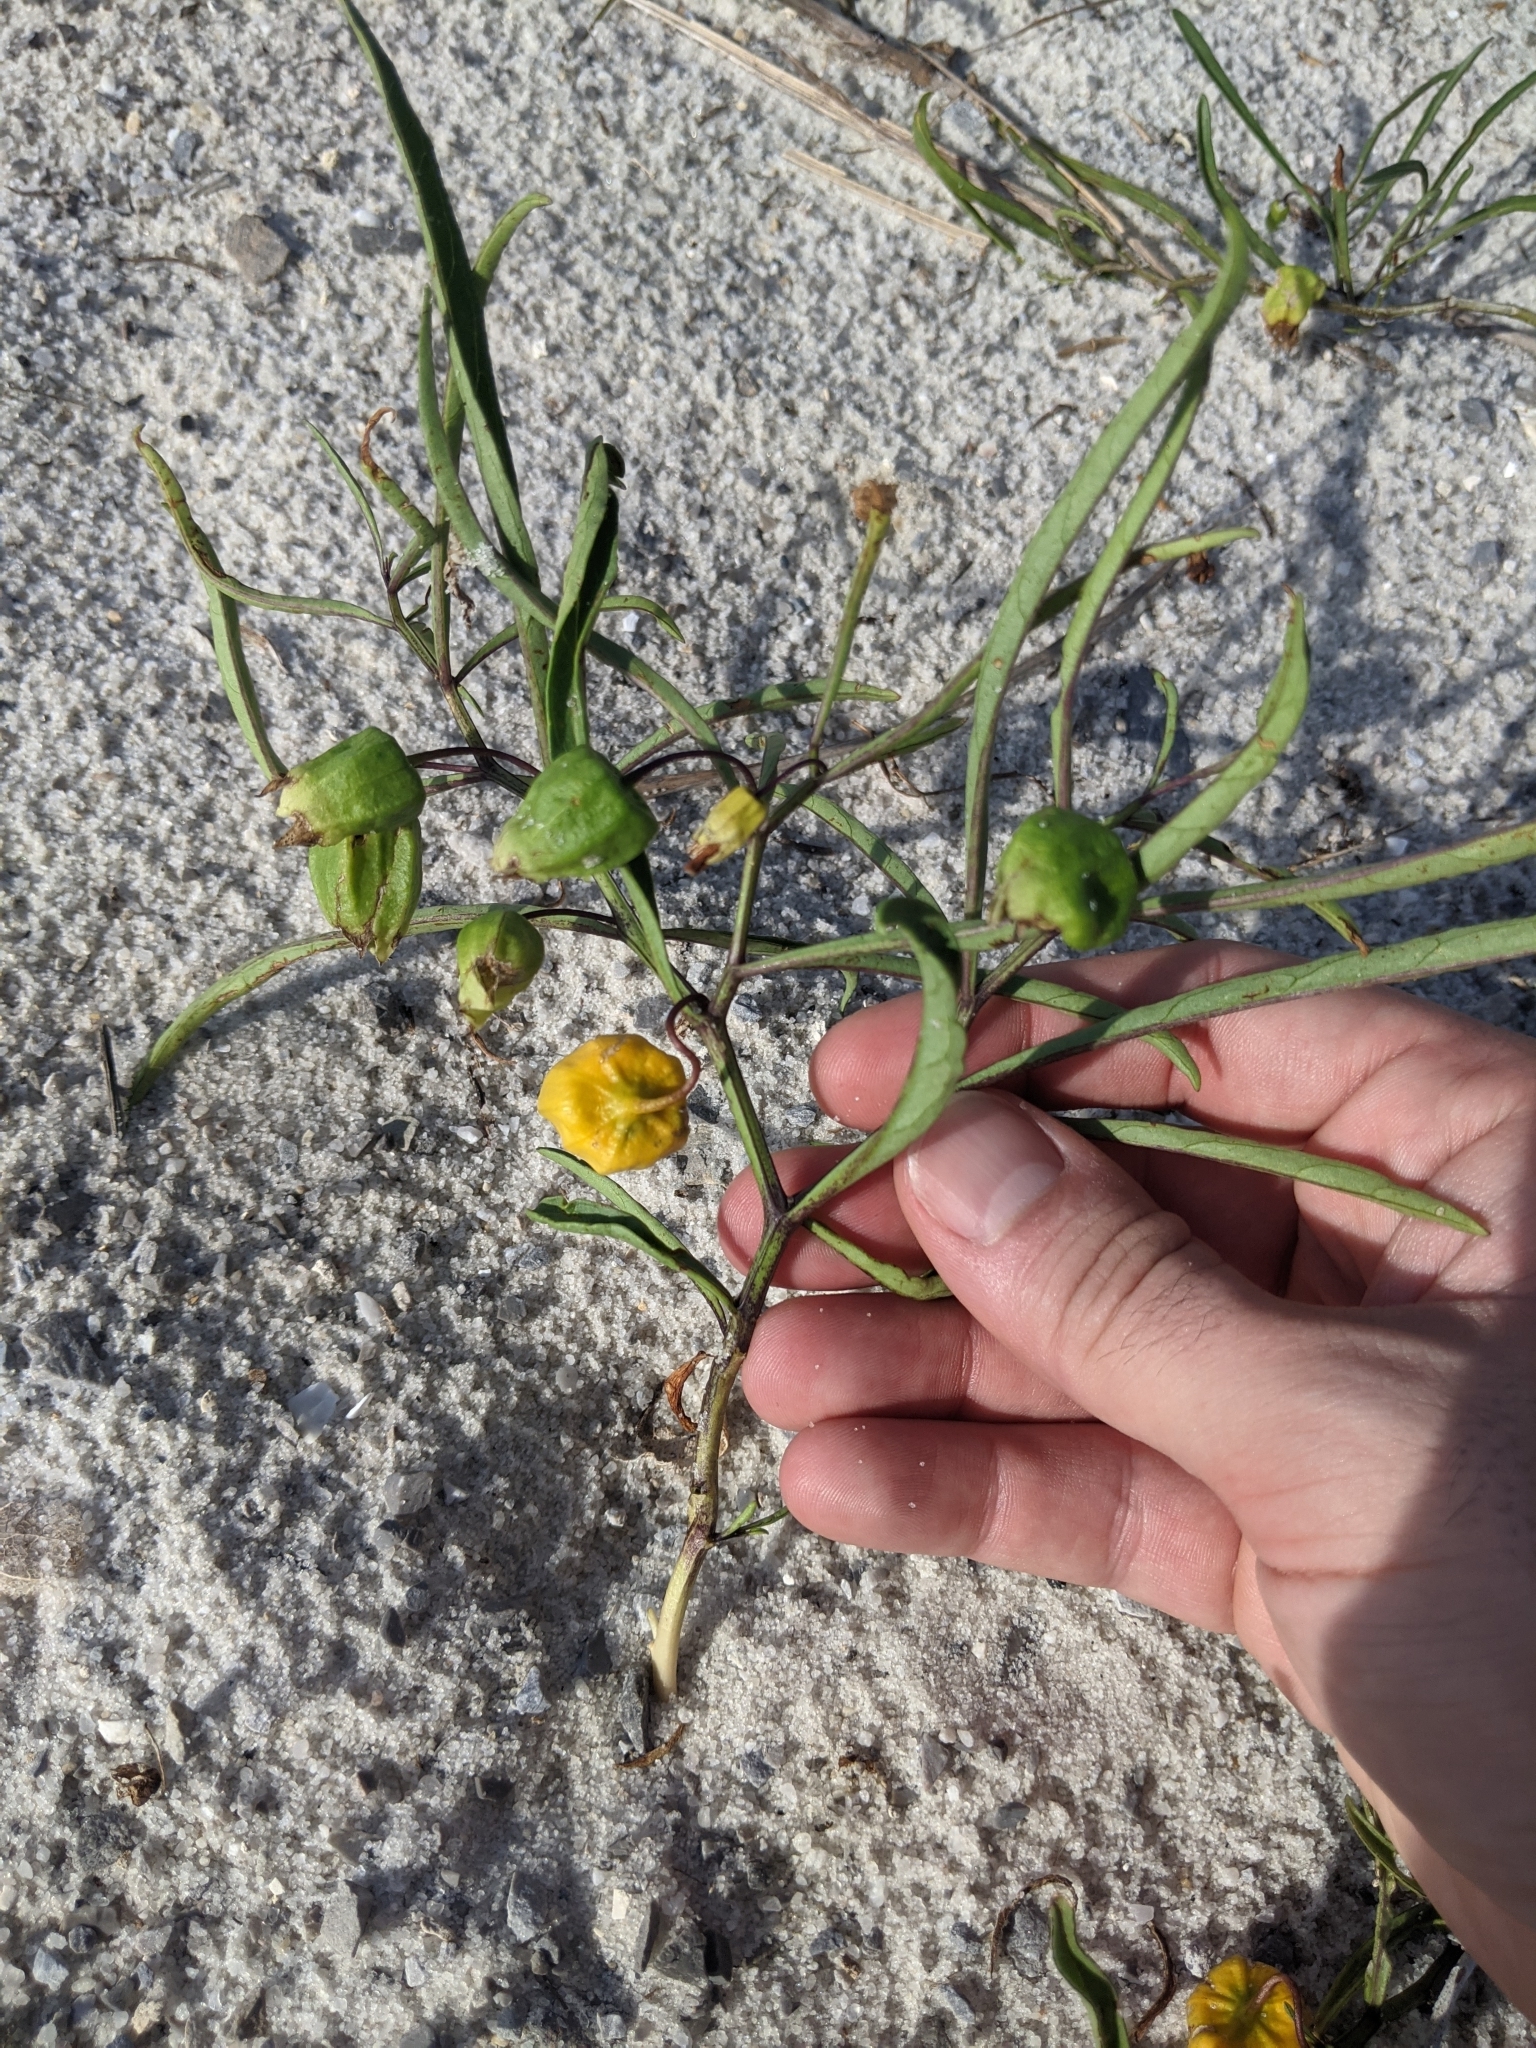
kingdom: Plantae
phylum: Tracheophyta
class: Magnoliopsida
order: Solanales
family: Solanaceae
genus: Physalis
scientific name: Physalis angustifolia
